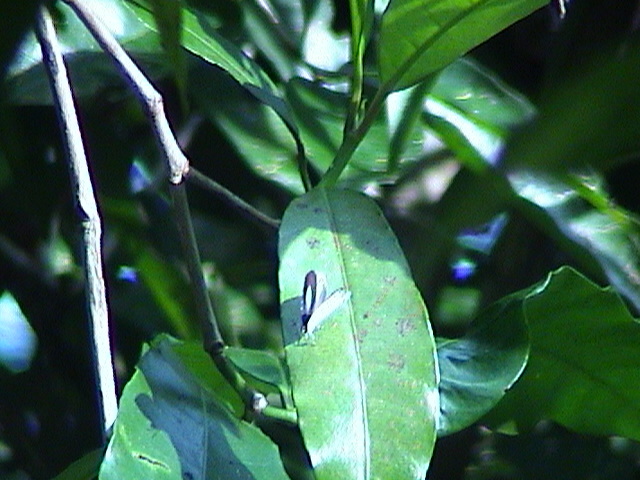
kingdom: Animalia
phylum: Arthropoda
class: Insecta
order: Lepidoptera
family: Lycaenidae
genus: Neopithecops
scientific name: Neopithecops zalmora
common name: Quaker
